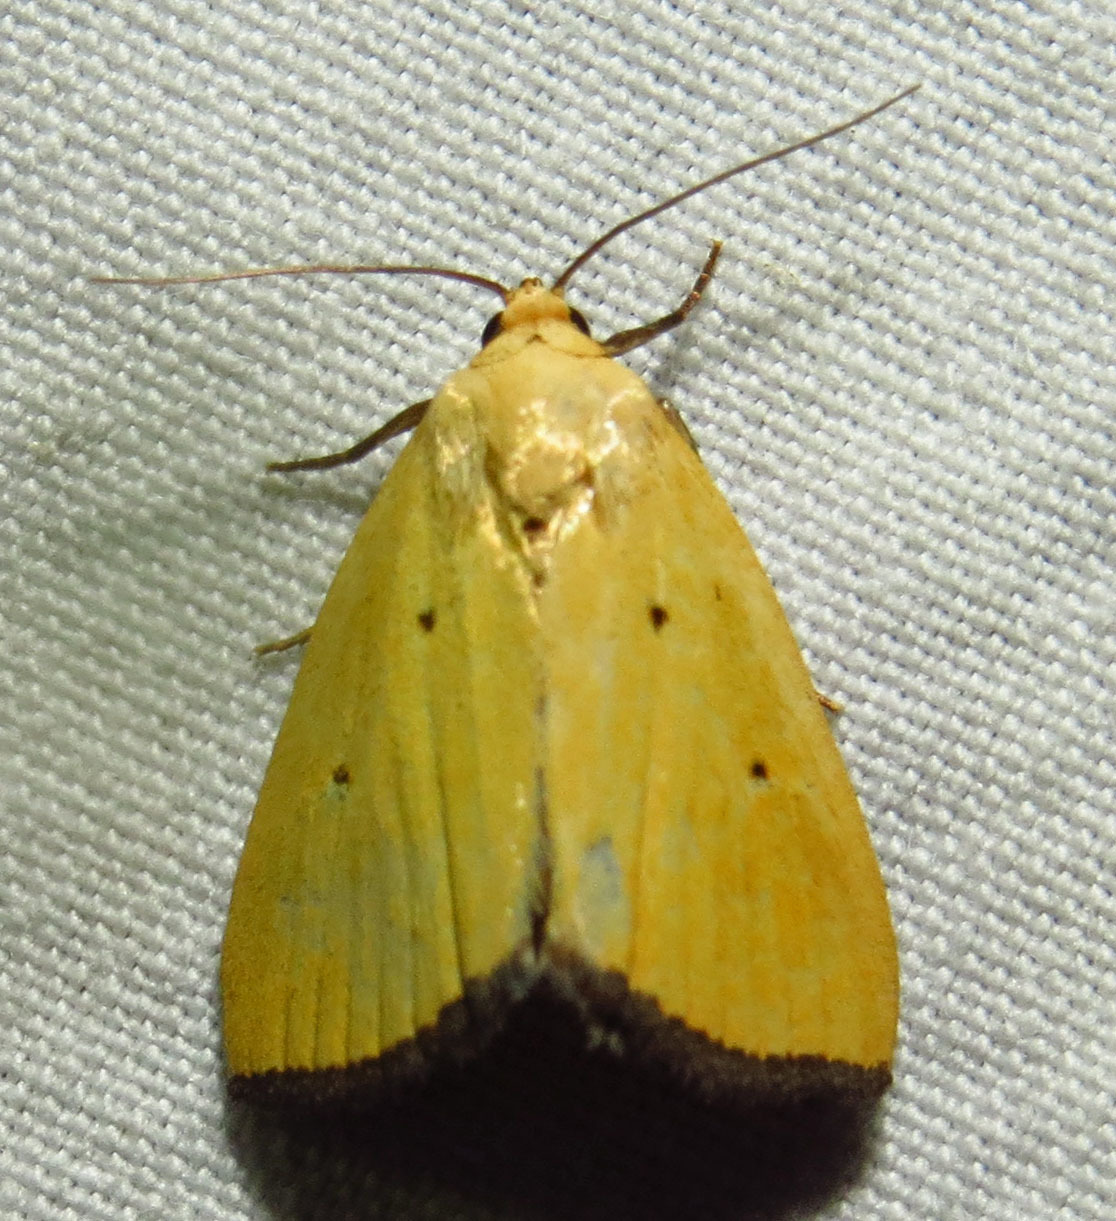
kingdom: Animalia
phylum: Arthropoda
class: Insecta
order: Lepidoptera
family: Noctuidae
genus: Marimatha
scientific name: Marimatha nigrofimbria
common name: Black-bordered lemon moth
